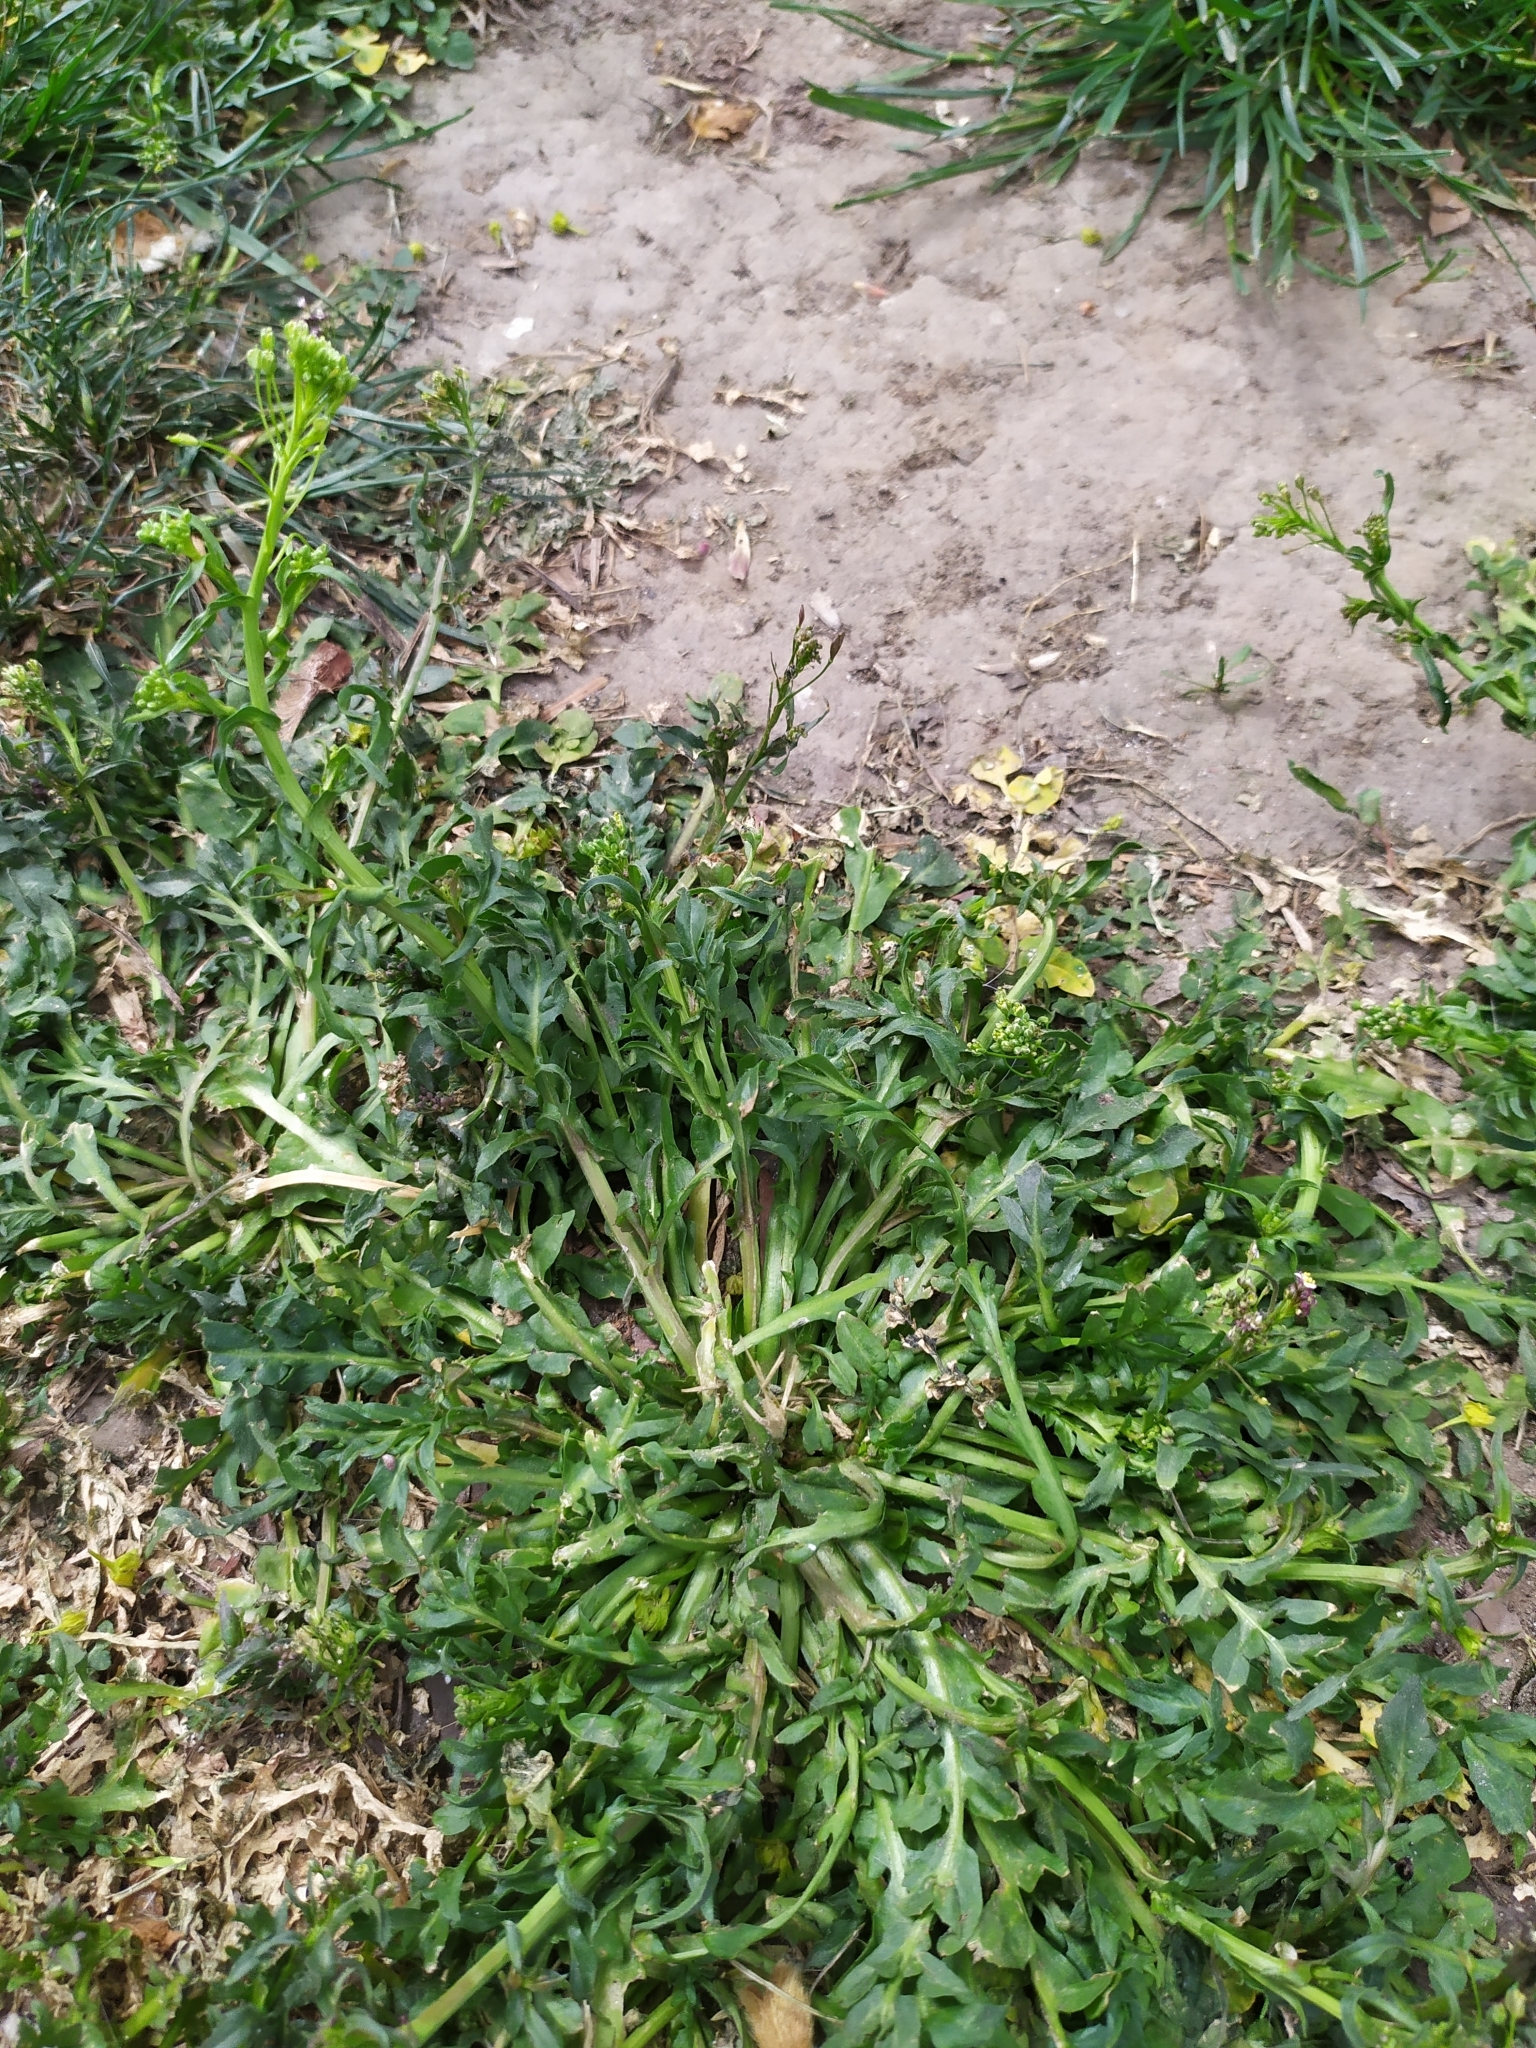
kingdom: Plantae
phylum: Tracheophyta
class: Magnoliopsida
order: Brassicales
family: Brassicaceae
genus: Capsella
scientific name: Capsella bursa-pastoris
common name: Shepherd's purse
